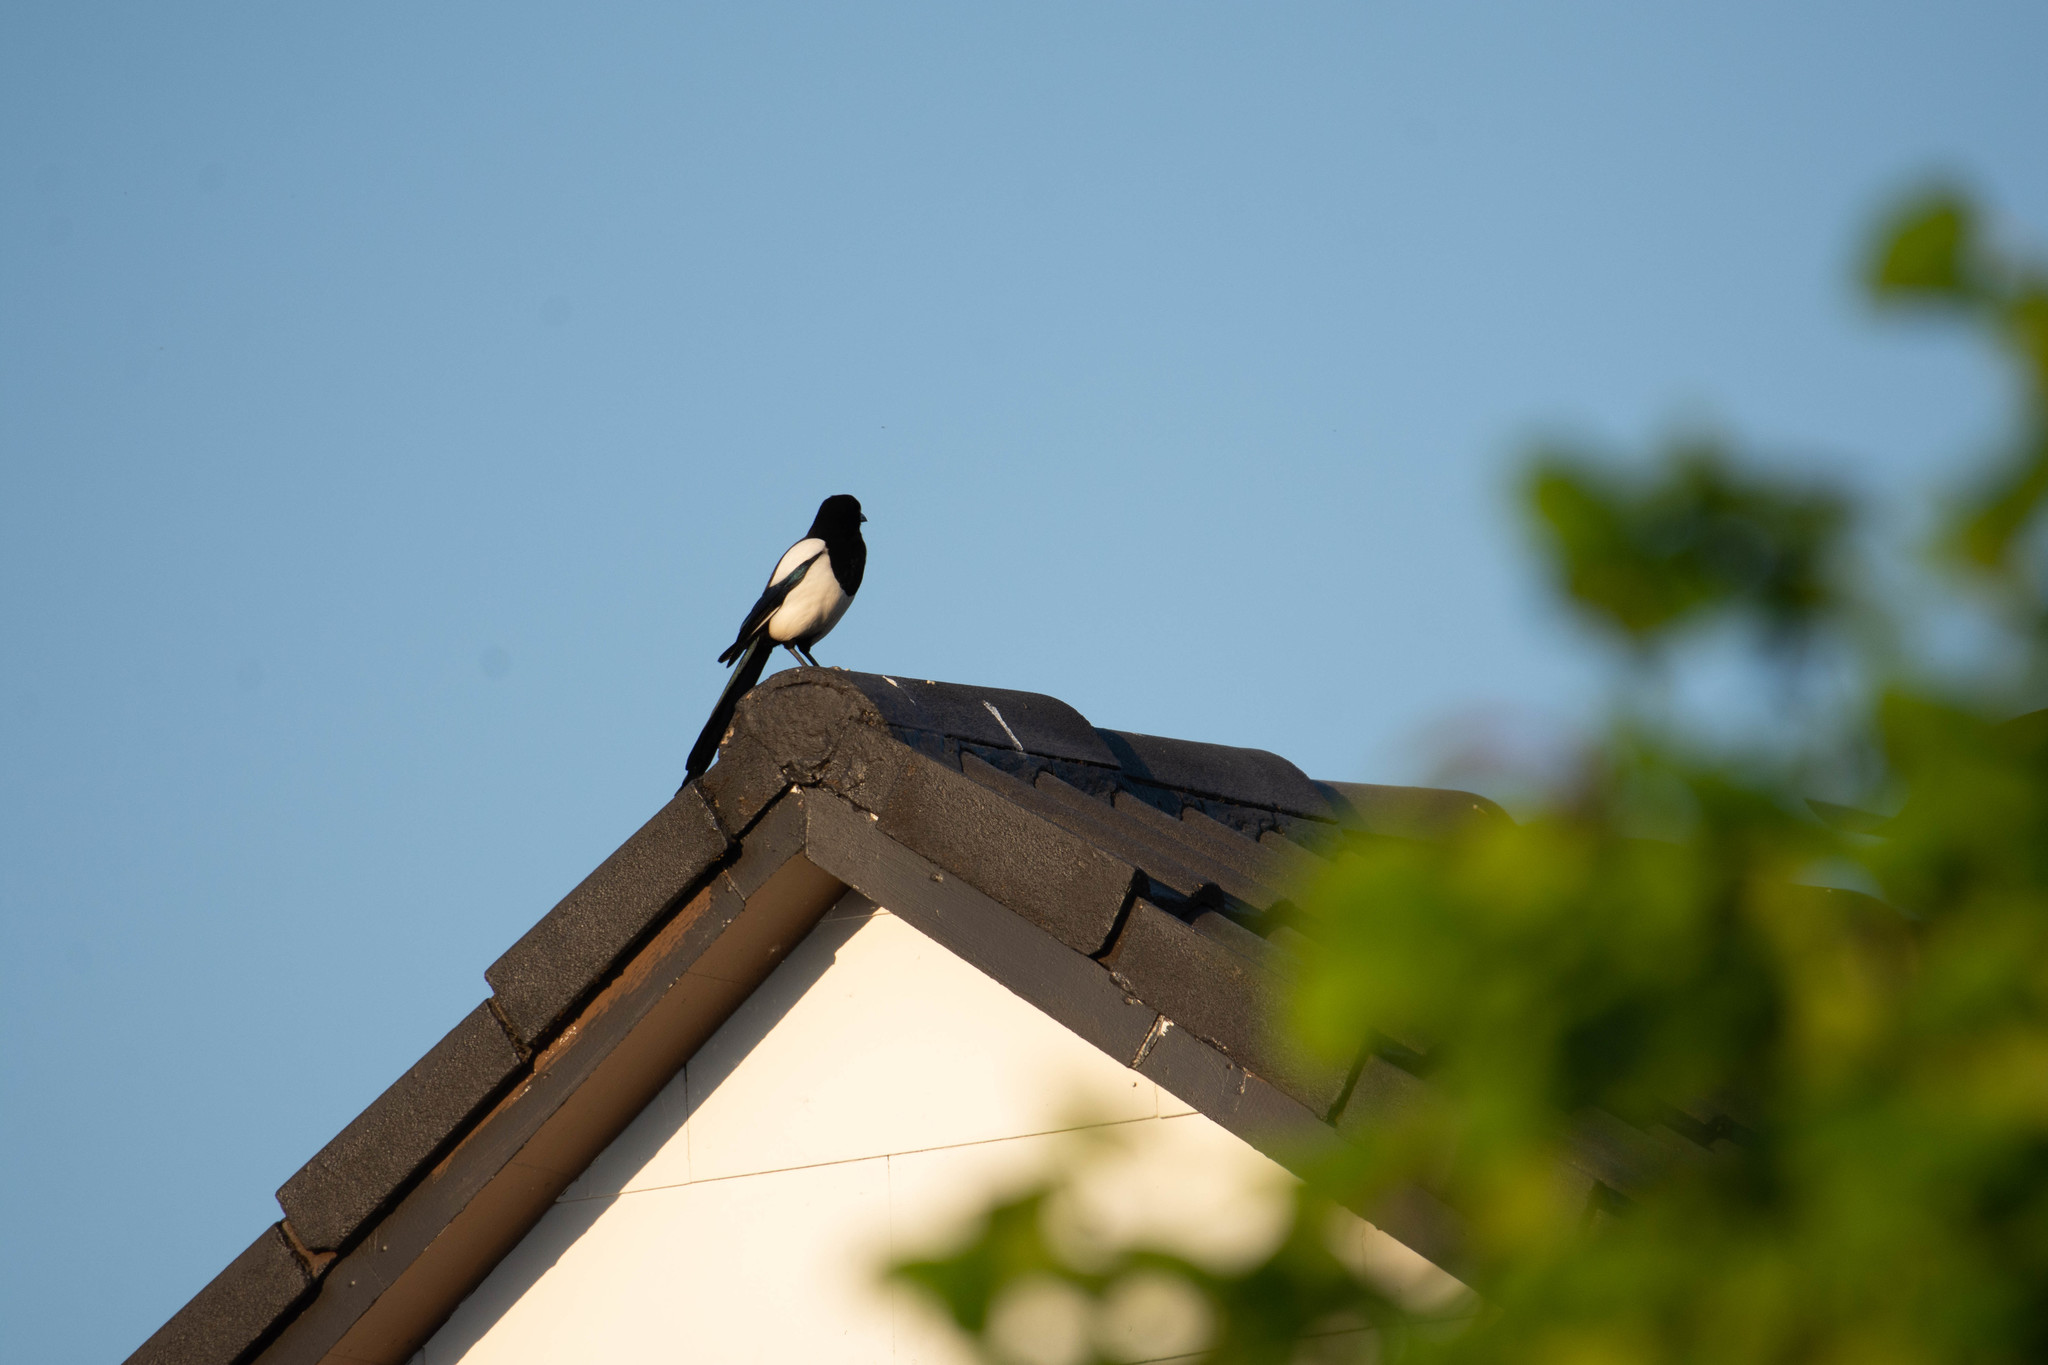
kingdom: Animalia
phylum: Chordata
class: Aves
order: Passeriformes
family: Corvidae
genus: Pica
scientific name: Pica pica
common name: Eurasian magpie
